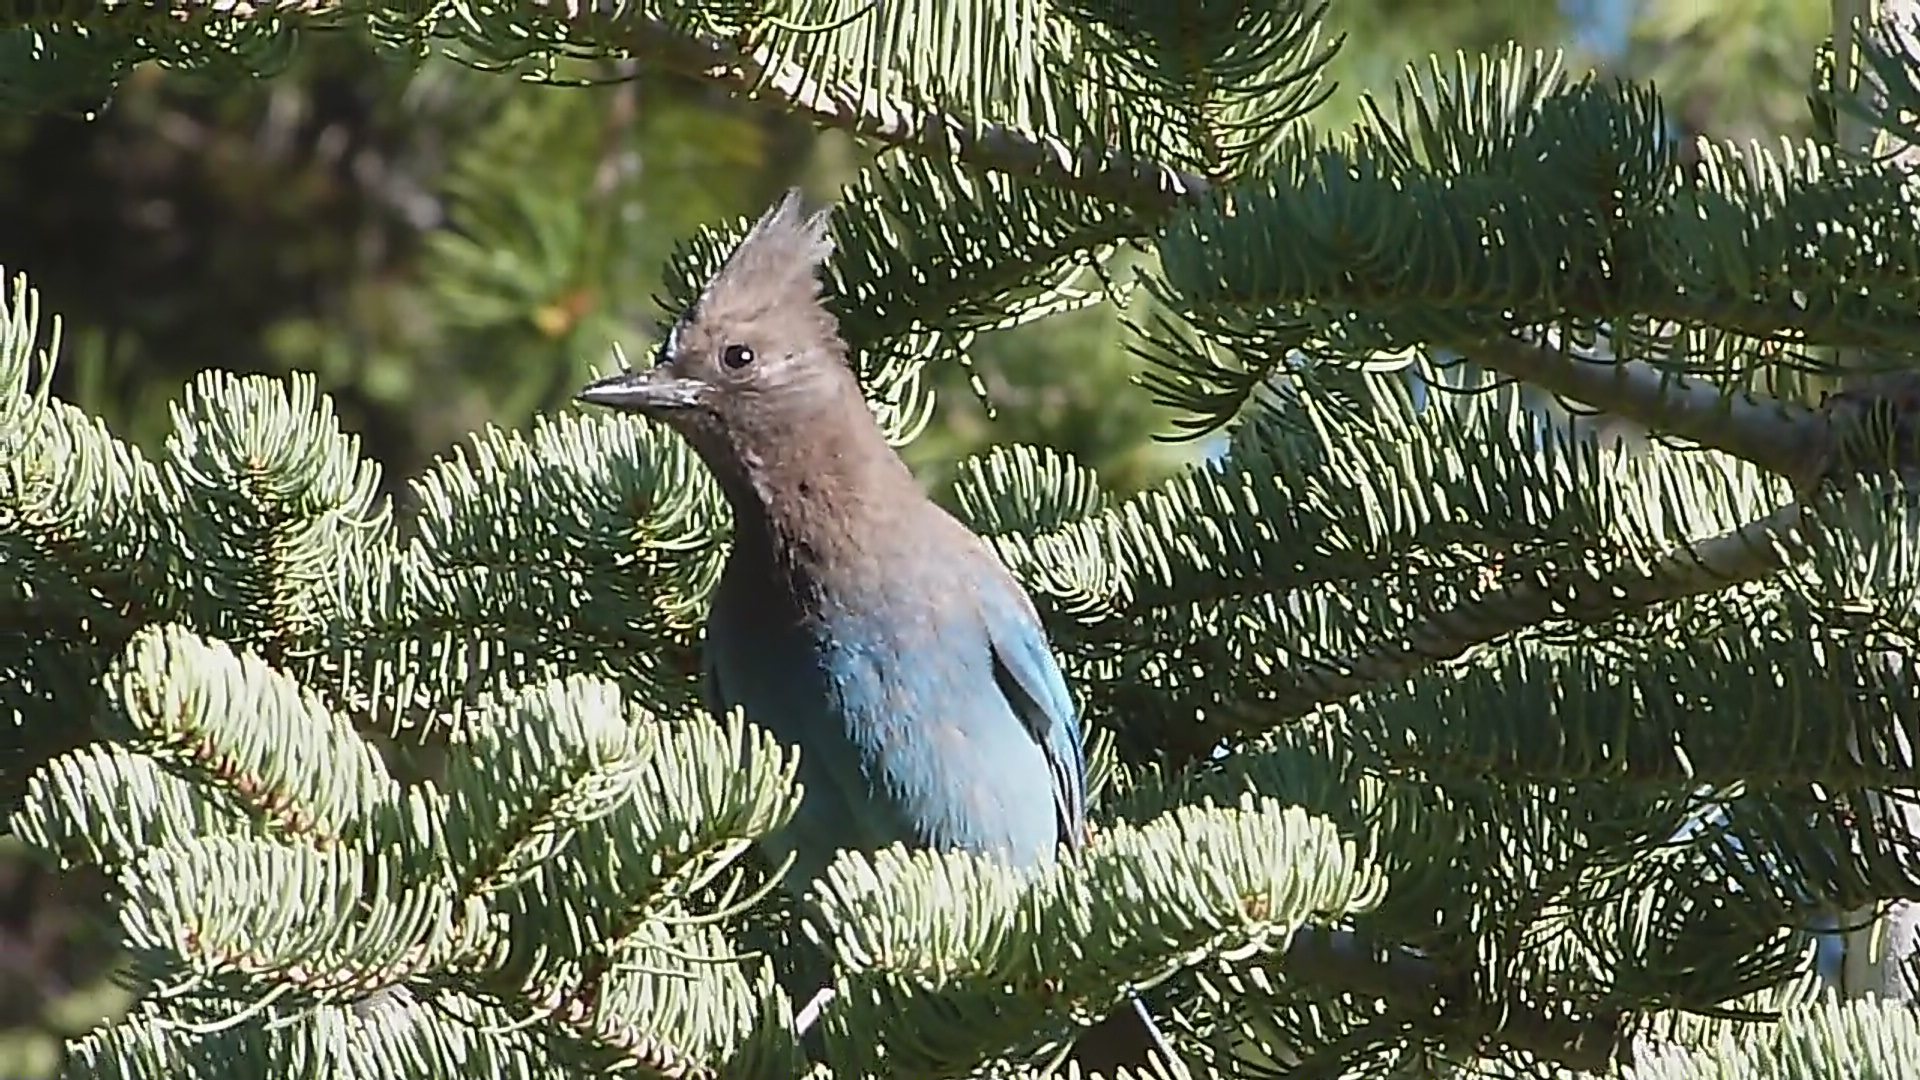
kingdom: Animalia
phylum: Chordata
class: Aves
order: Passeriformes
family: Corvidae
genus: Cyanocitta
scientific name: Cyanocitta stelleri
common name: Steller's jay
